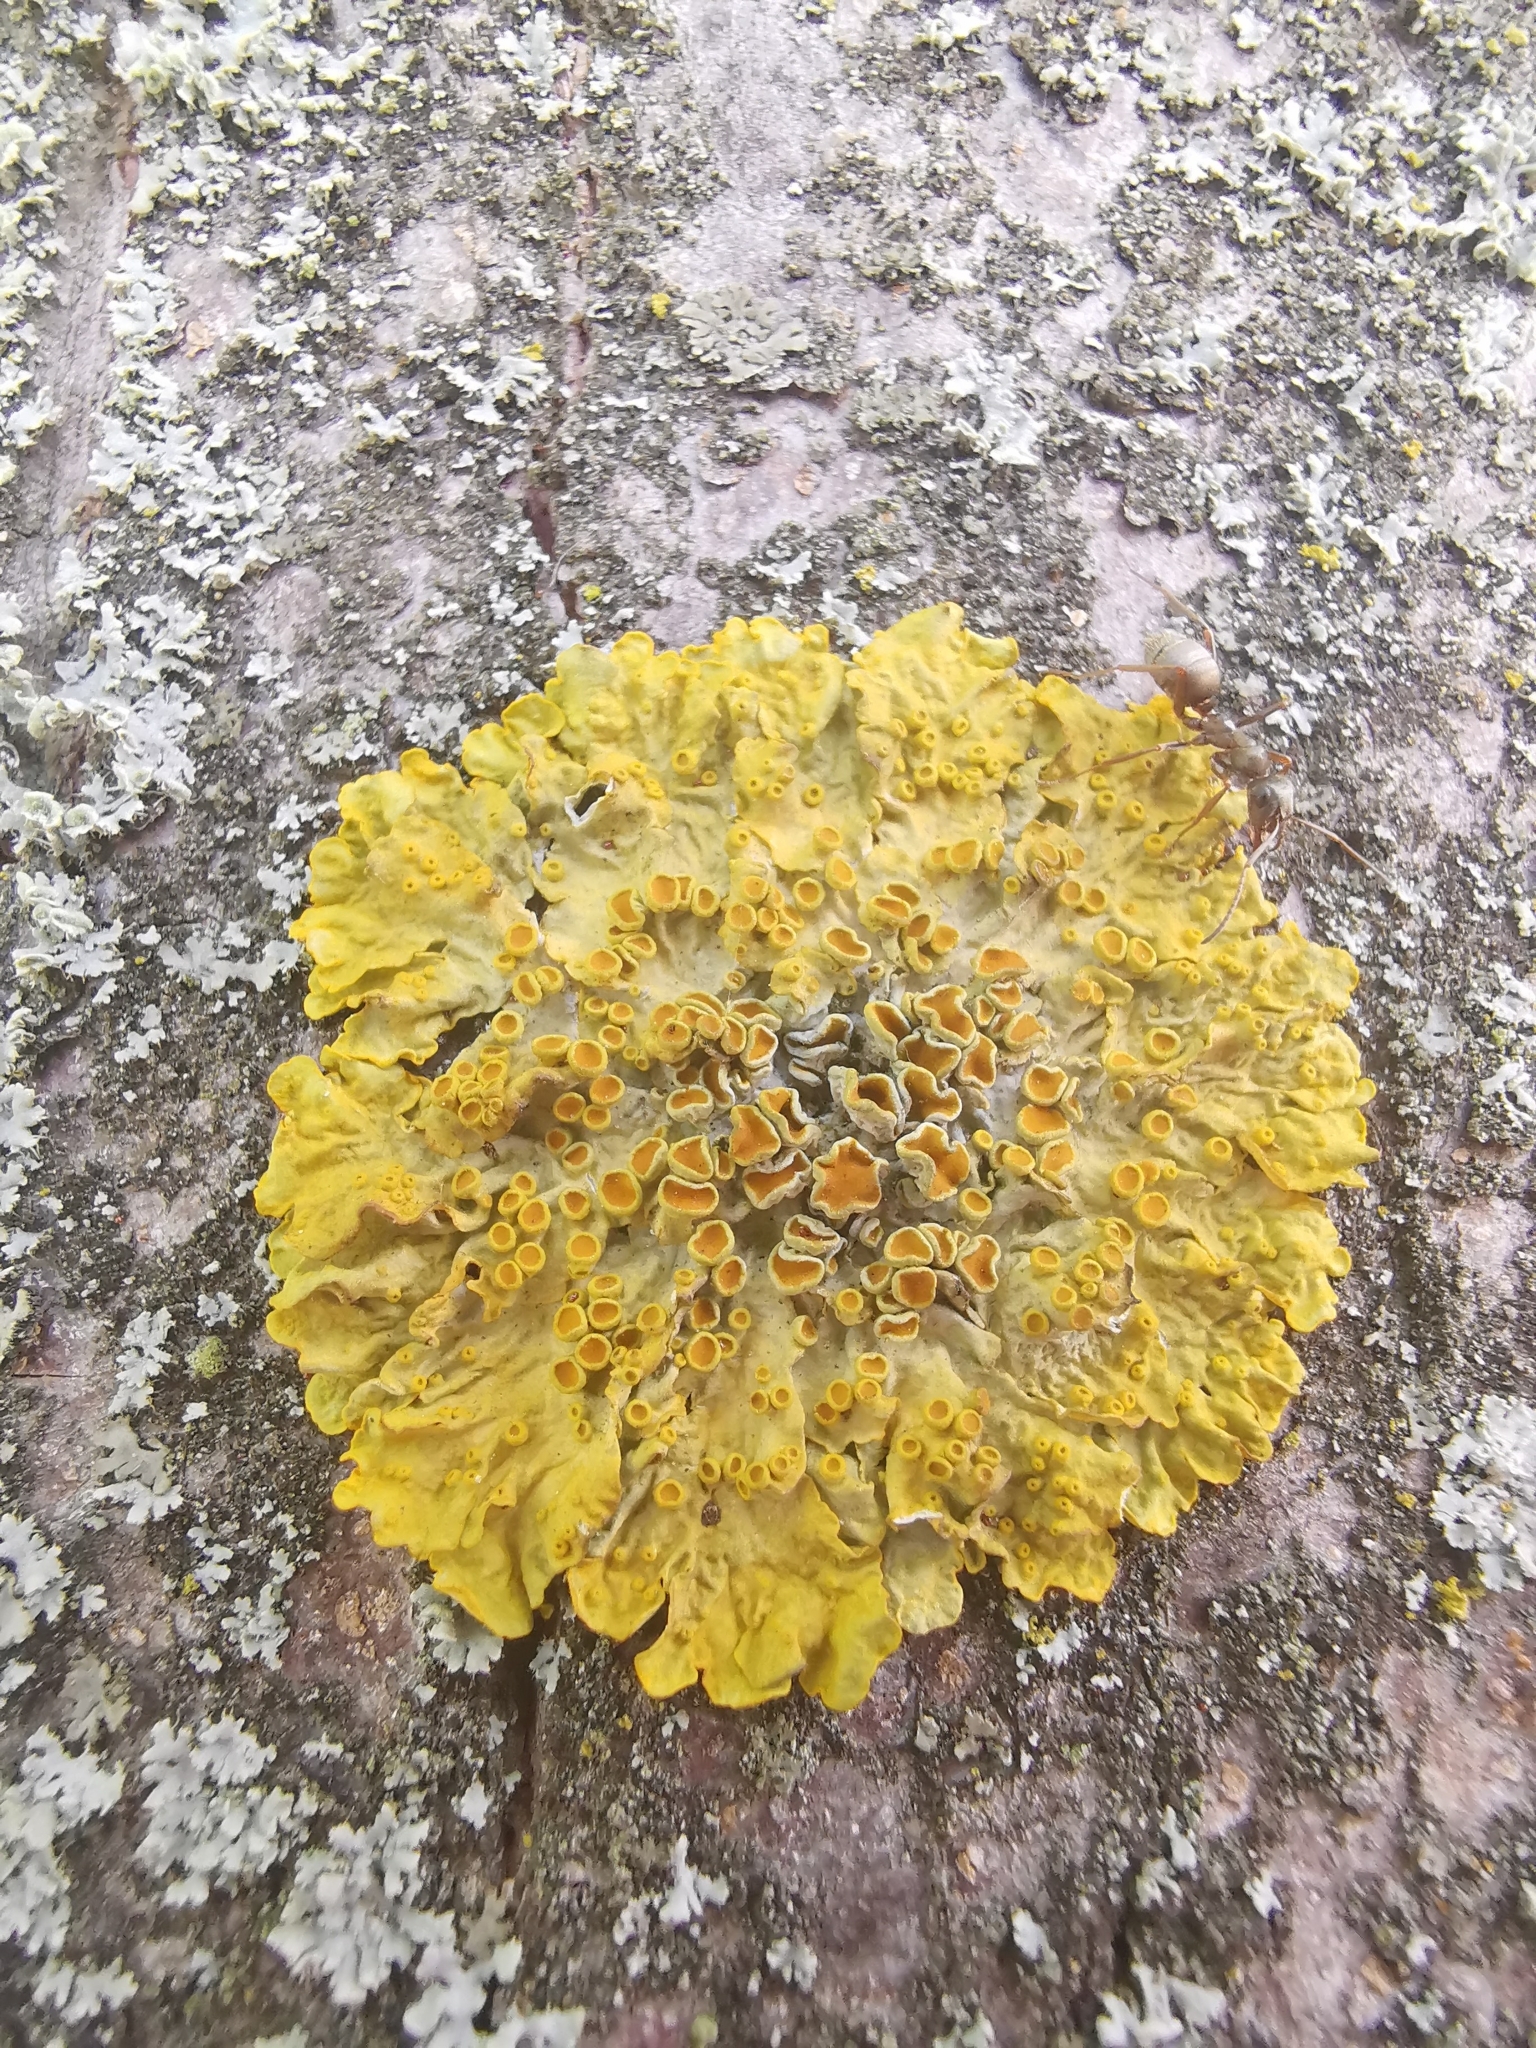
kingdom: Fungi
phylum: Ascomycota
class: Lecanoromycetes
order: Teloschistales
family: Teloschistaceae
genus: Xanthoria
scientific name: Xanthoria parietina
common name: Common orange lichen
